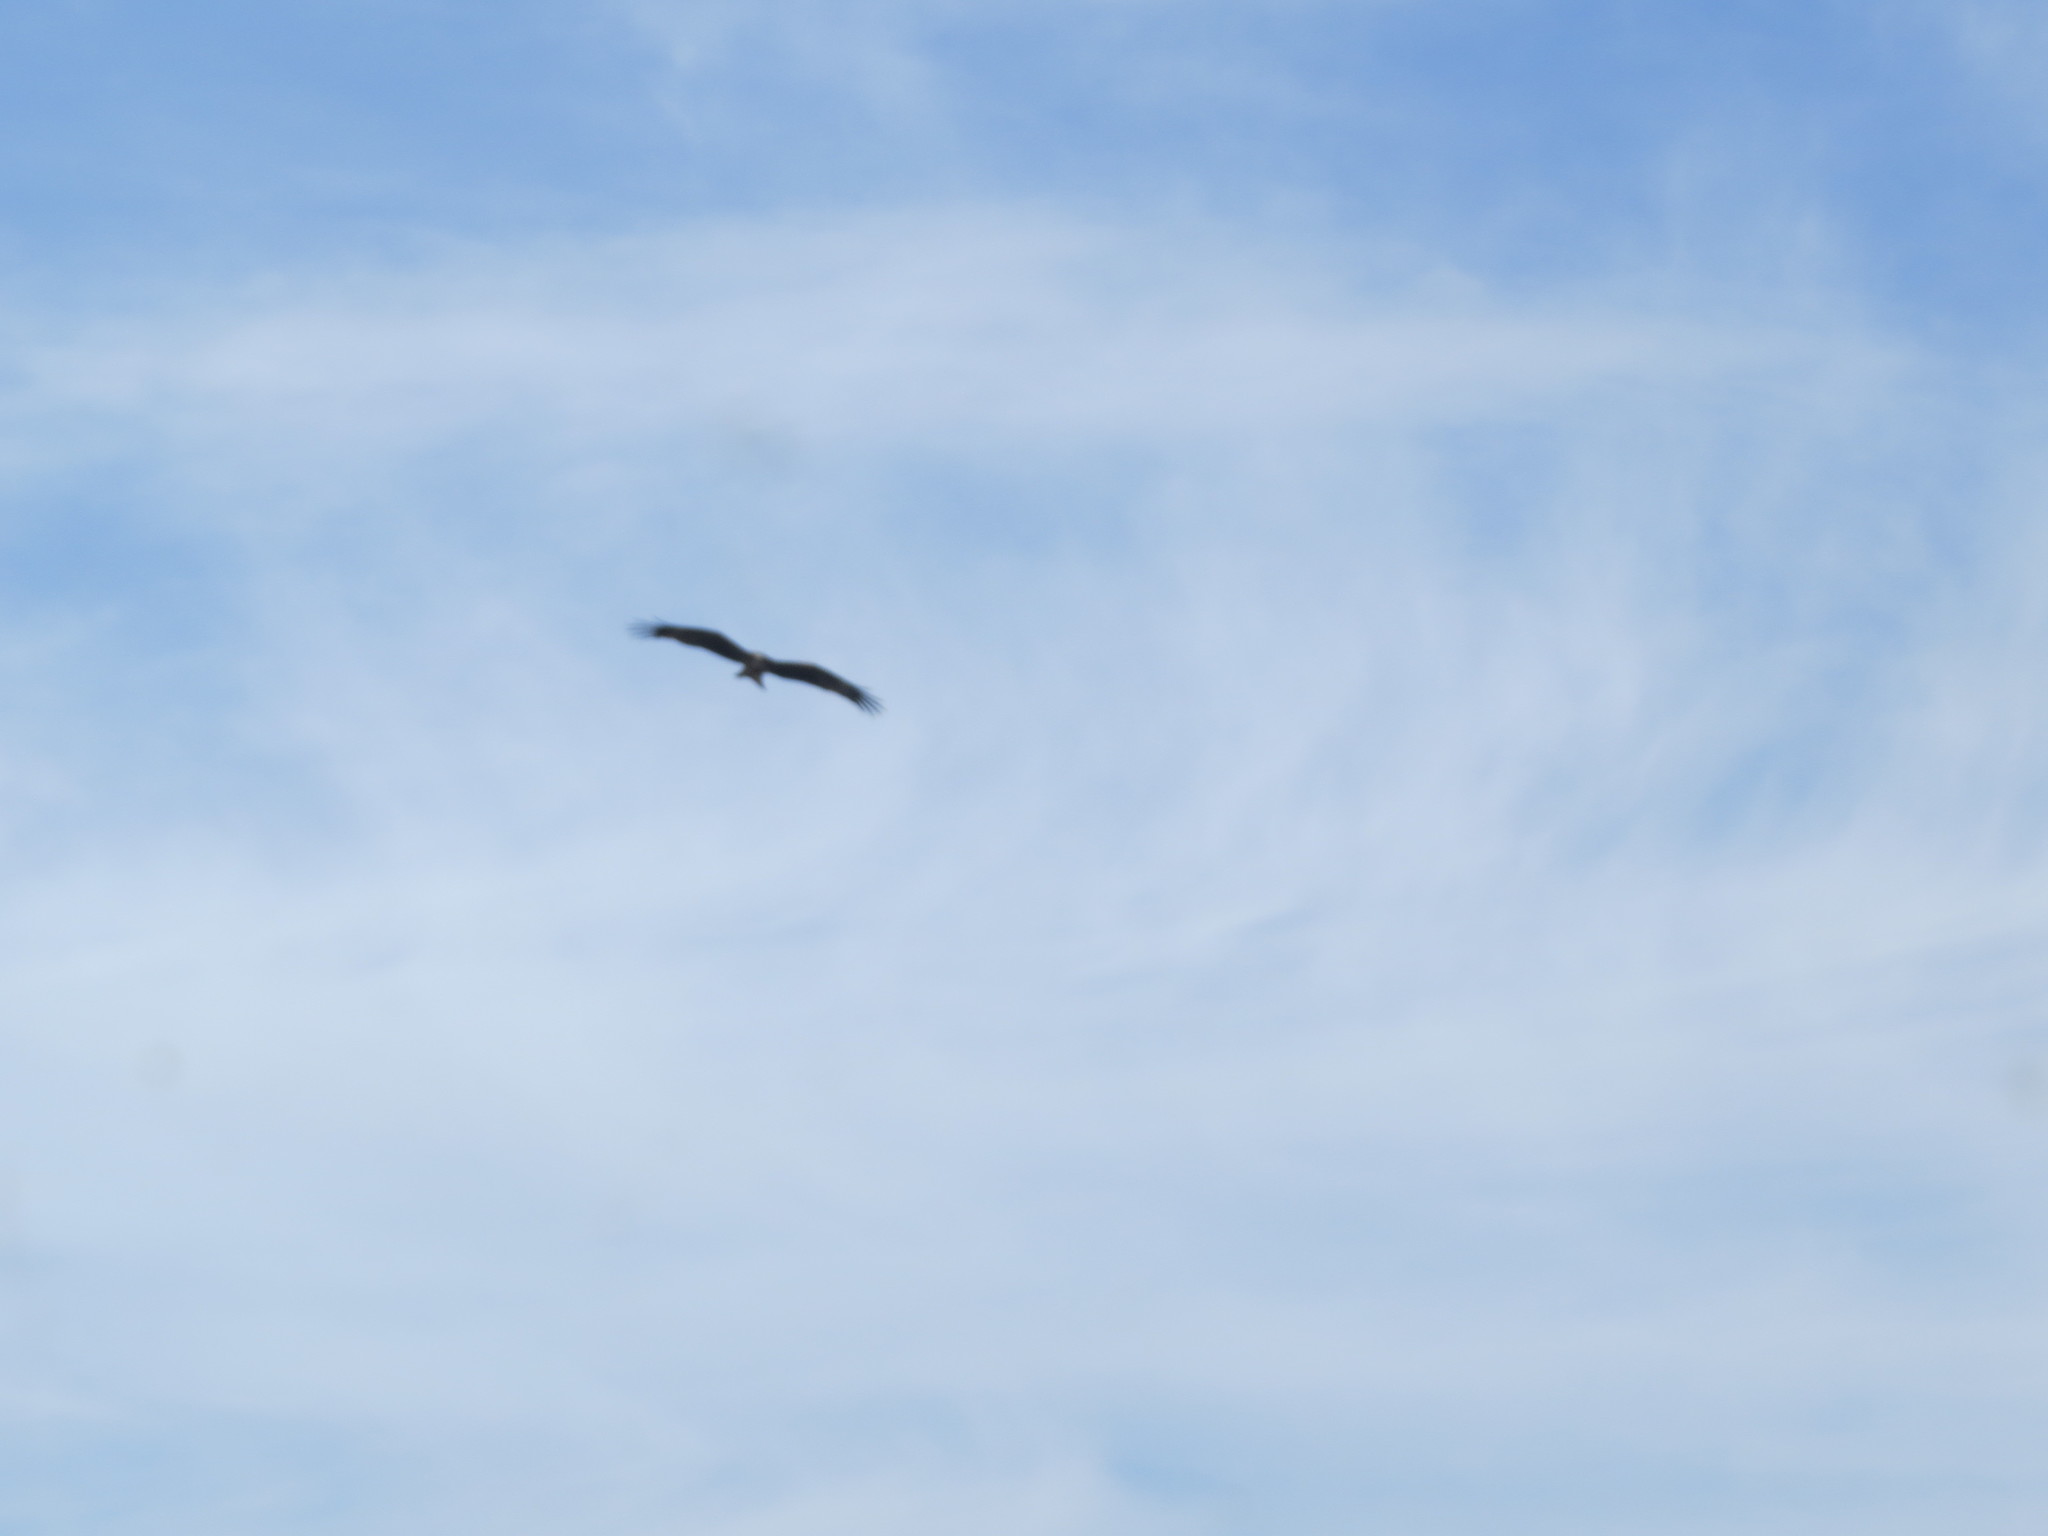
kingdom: Animalia
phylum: Chordata
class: Aves
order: Accipitriformes
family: Accipitridae
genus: Milvus
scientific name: Milvus migrans
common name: Black kite
